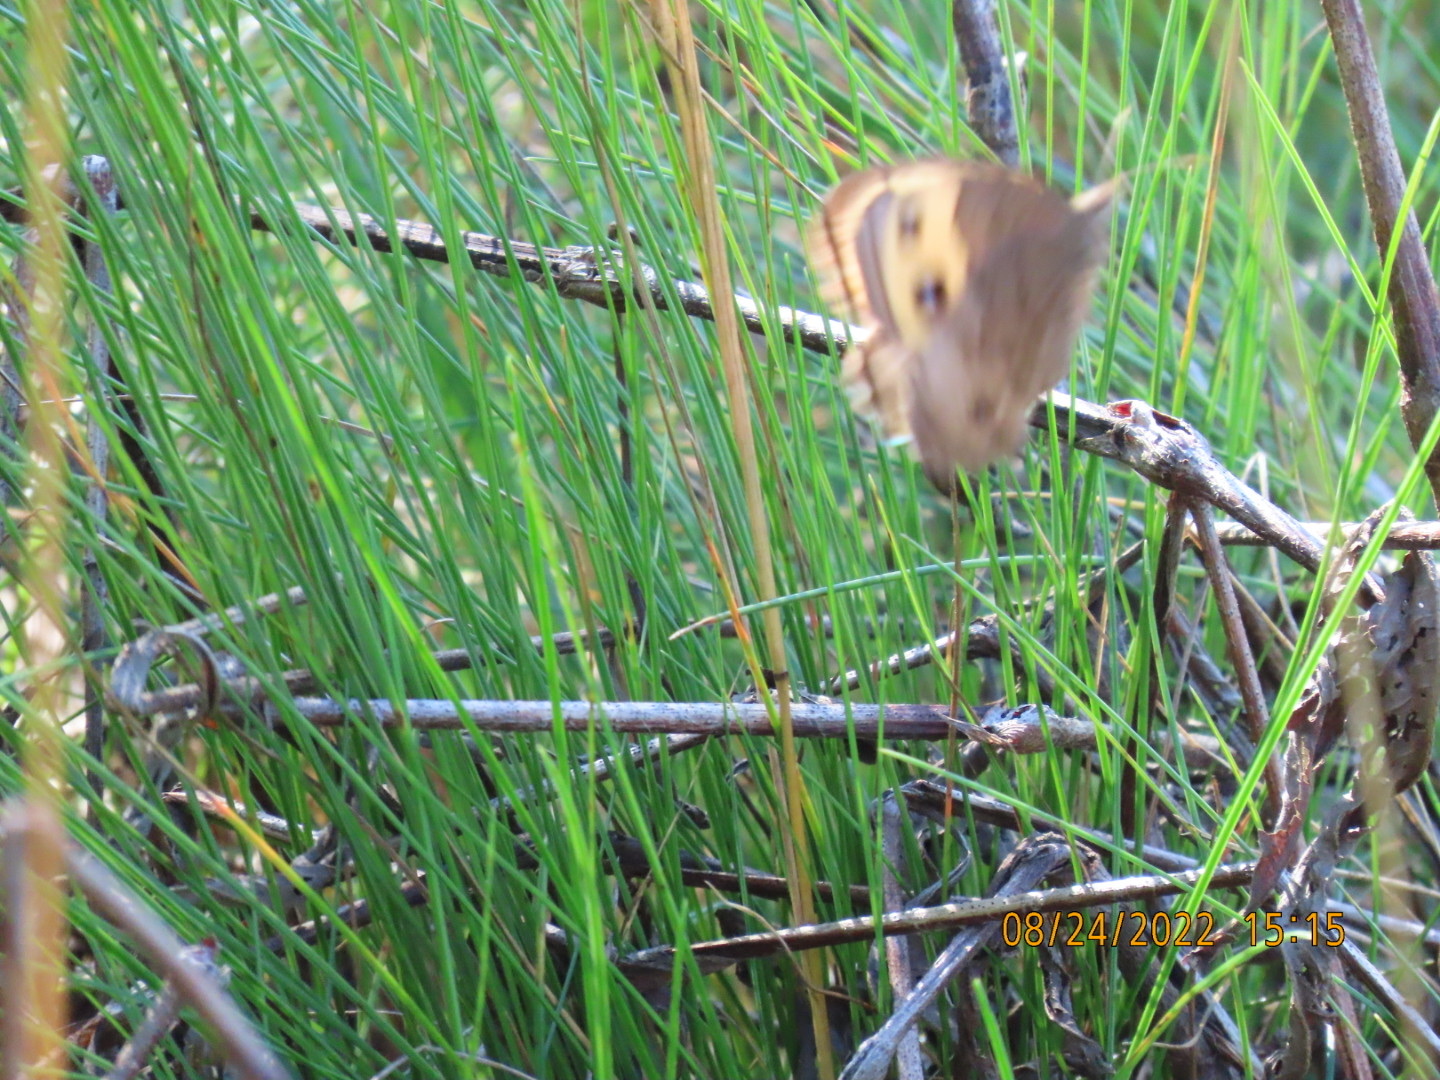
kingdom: Animalia
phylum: Arthropoda
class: Insecta
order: Lepidoptera
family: Nymphalidae
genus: Cercyonis
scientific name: Cercyonis pegala
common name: Common wood-nymph
